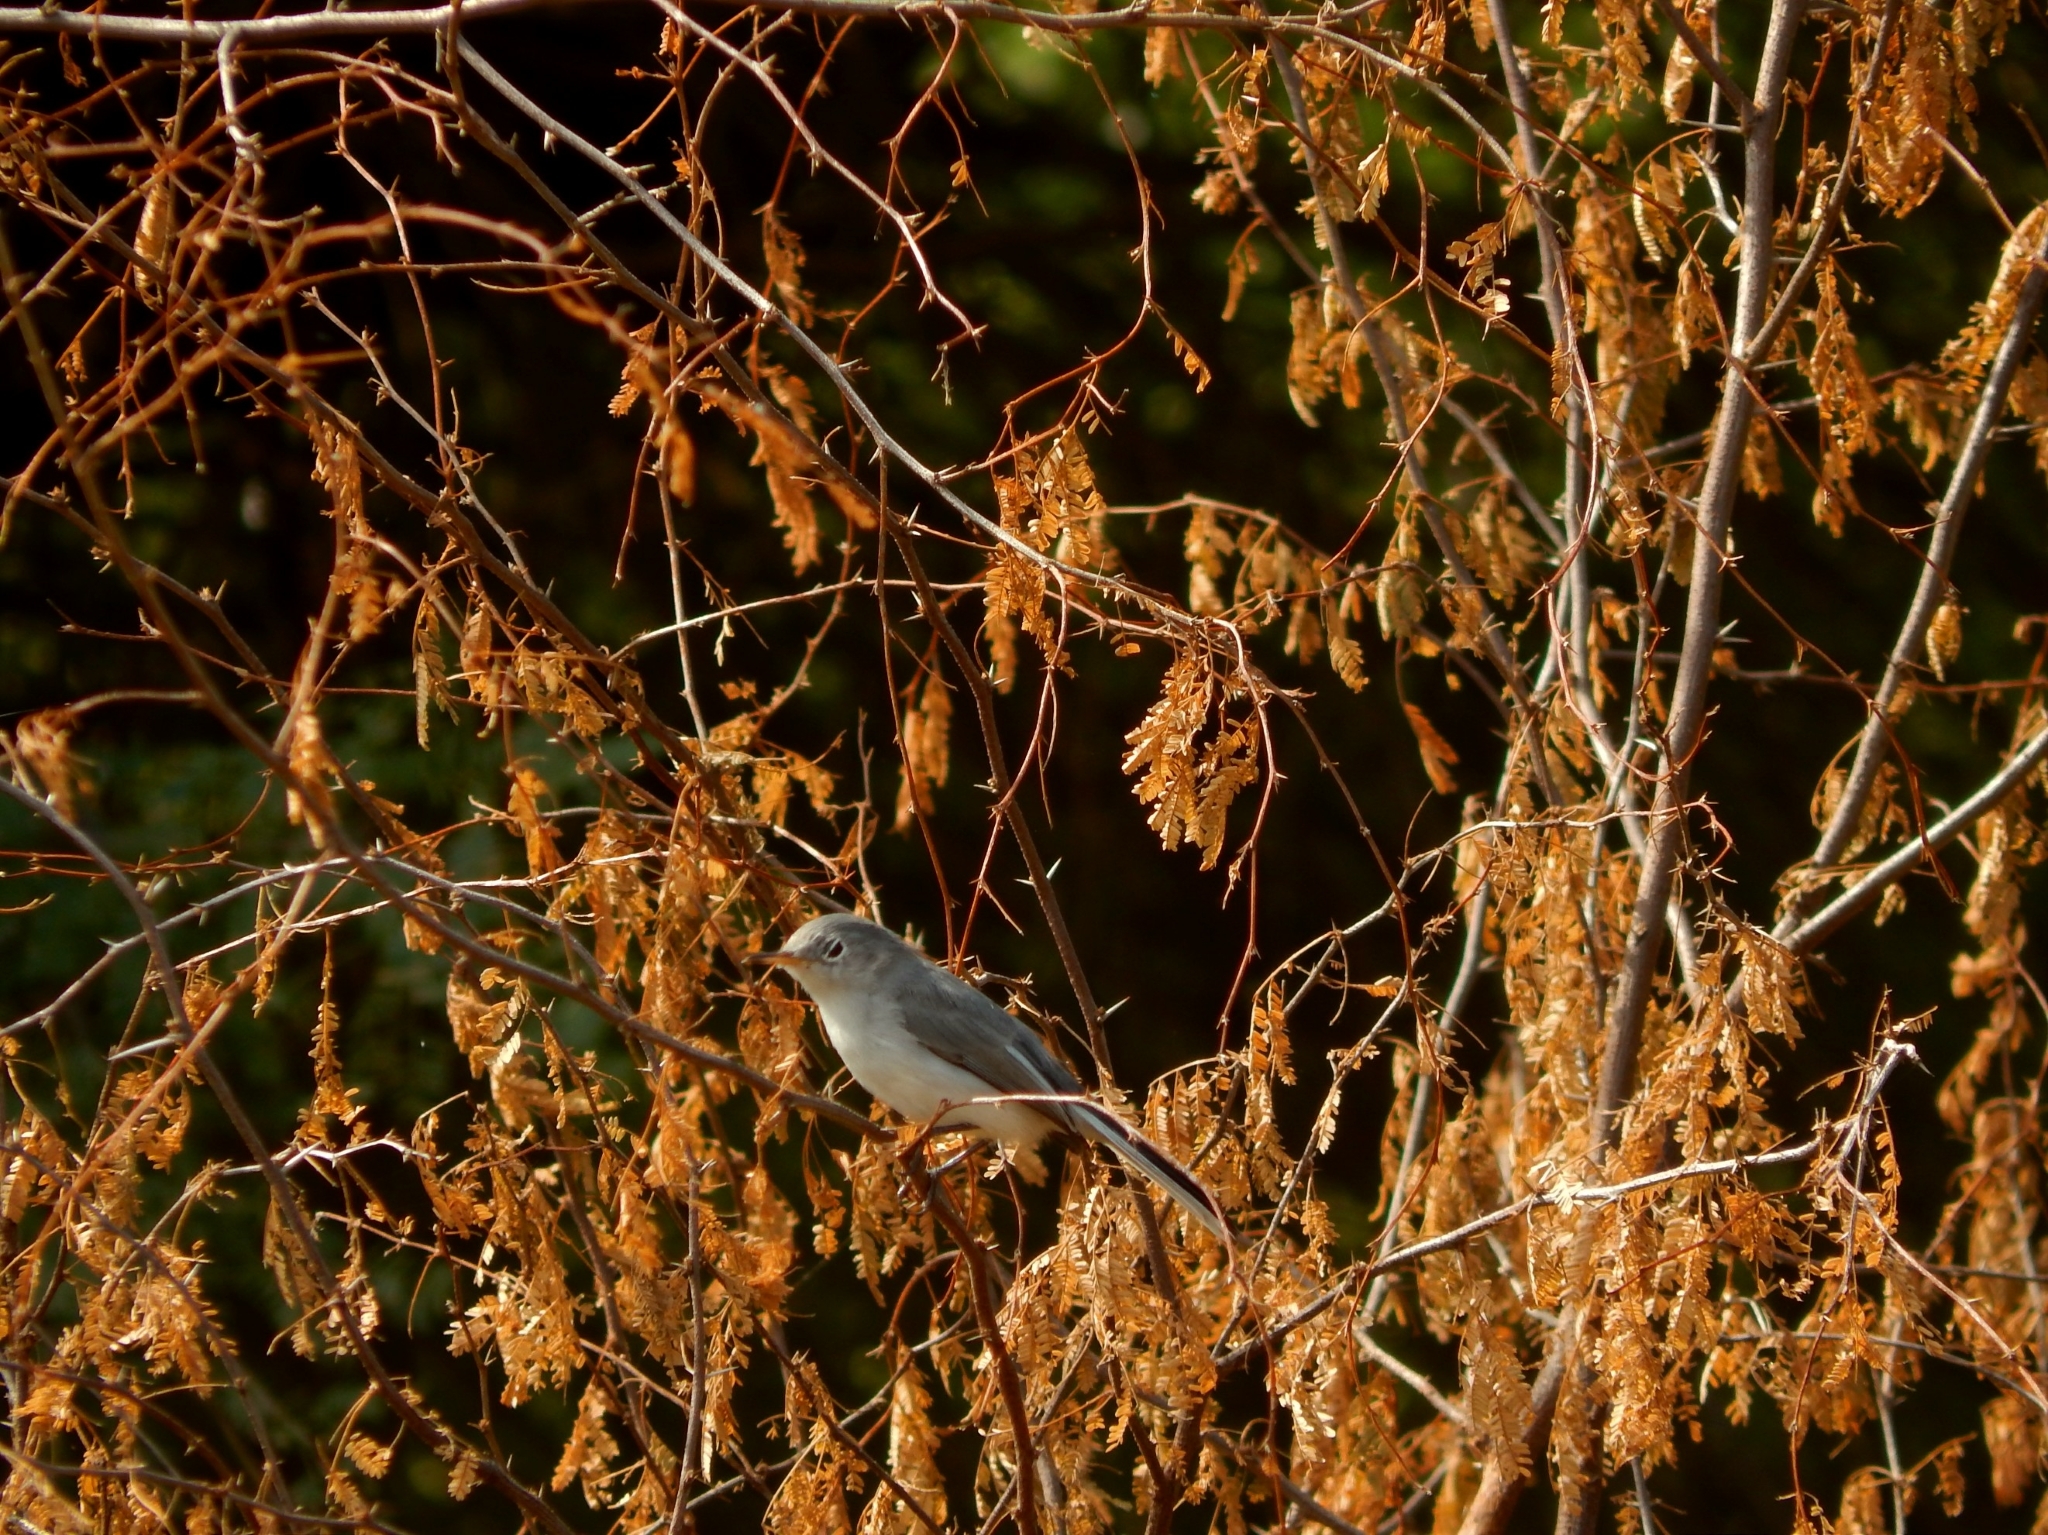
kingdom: Animalia
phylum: Chordata
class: Aves
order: Passeriformes
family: Polioptilidae
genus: Polioptila
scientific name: Polioptila caerulea
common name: Blue-gray gnatcatcher
